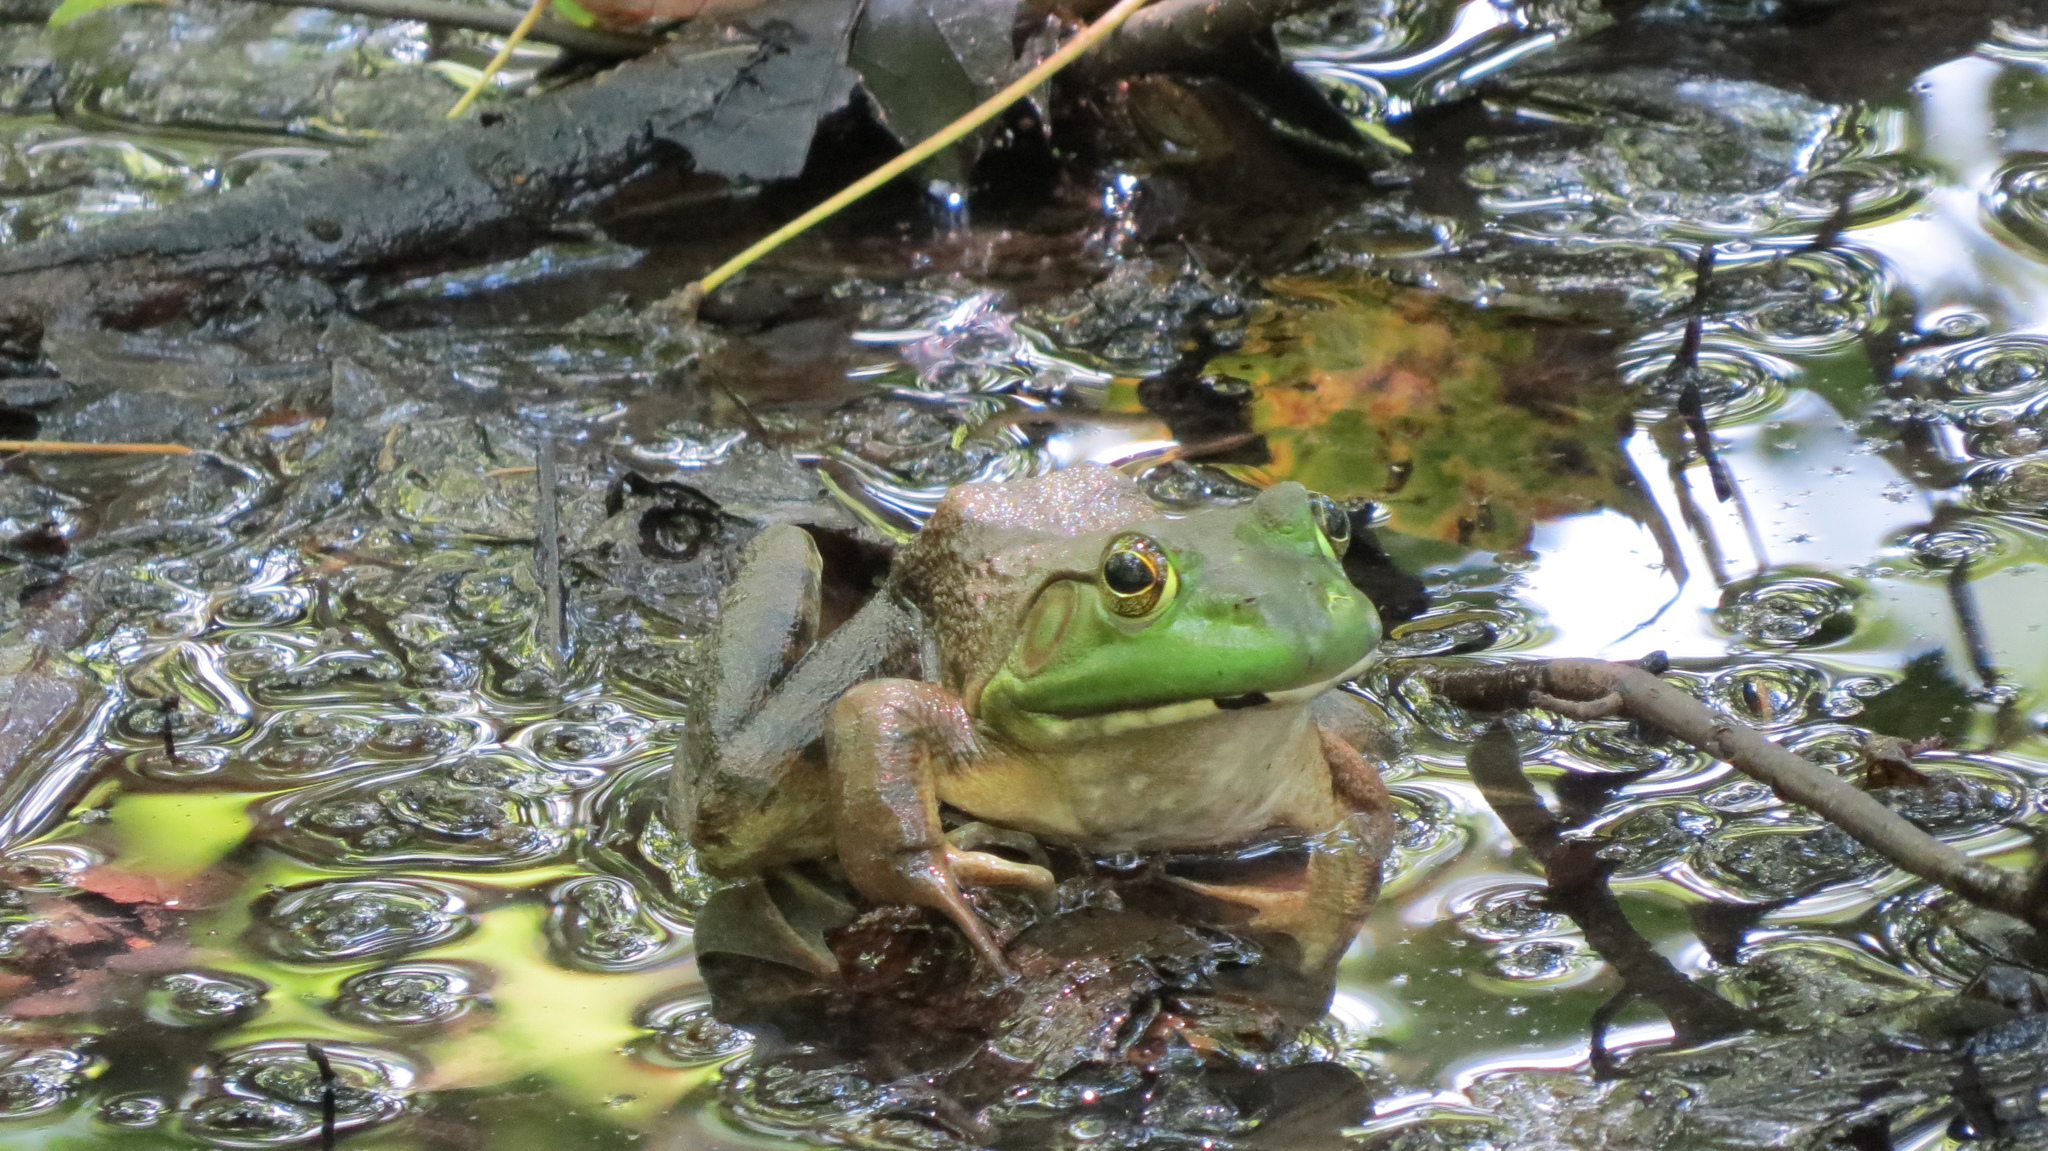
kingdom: Animalia
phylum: Chordata
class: Amphibia
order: Anura
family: Ranidae
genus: Lithobates
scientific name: Lithobates catesbeianus
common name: American bullfrog
